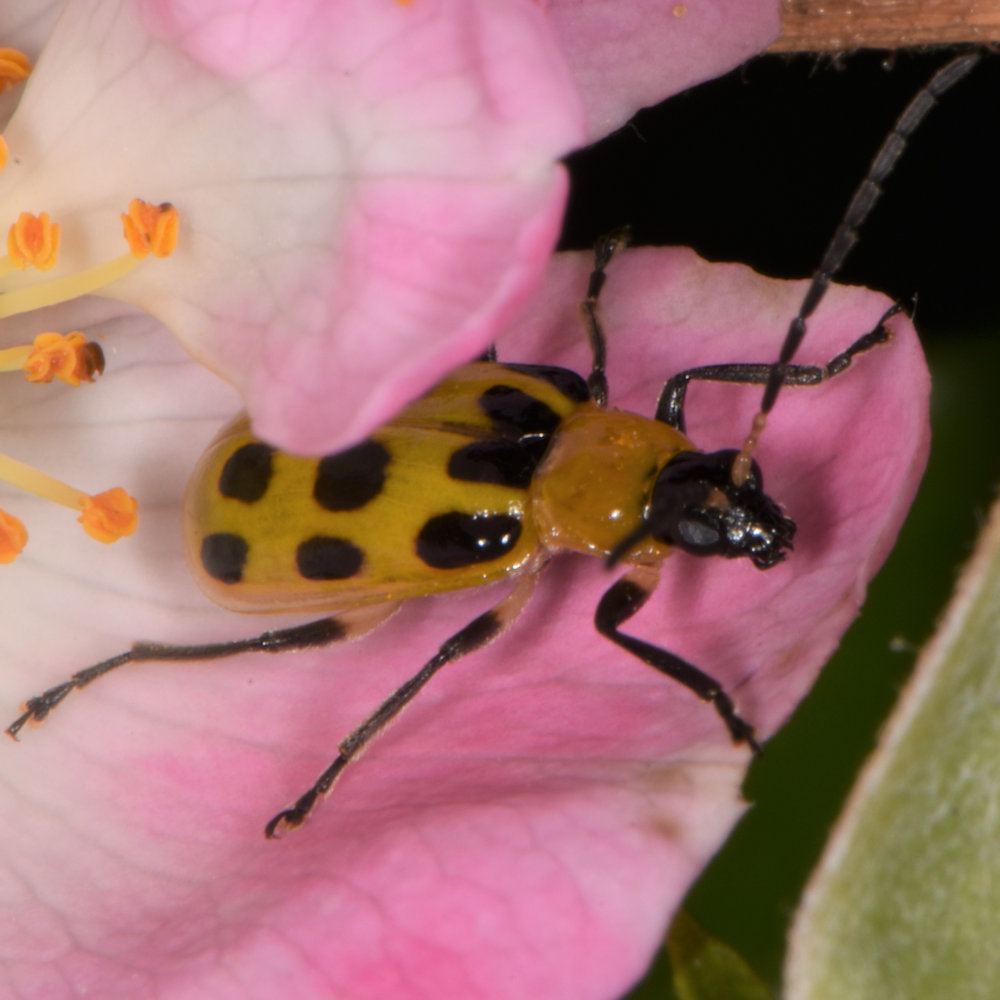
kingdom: Animalia
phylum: Arthropoda
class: Insecta
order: Coleoptera
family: Chrysomelidae
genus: Diabrotica
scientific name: Diabrotica undecimpunctata
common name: Spotted cucumber beetle
